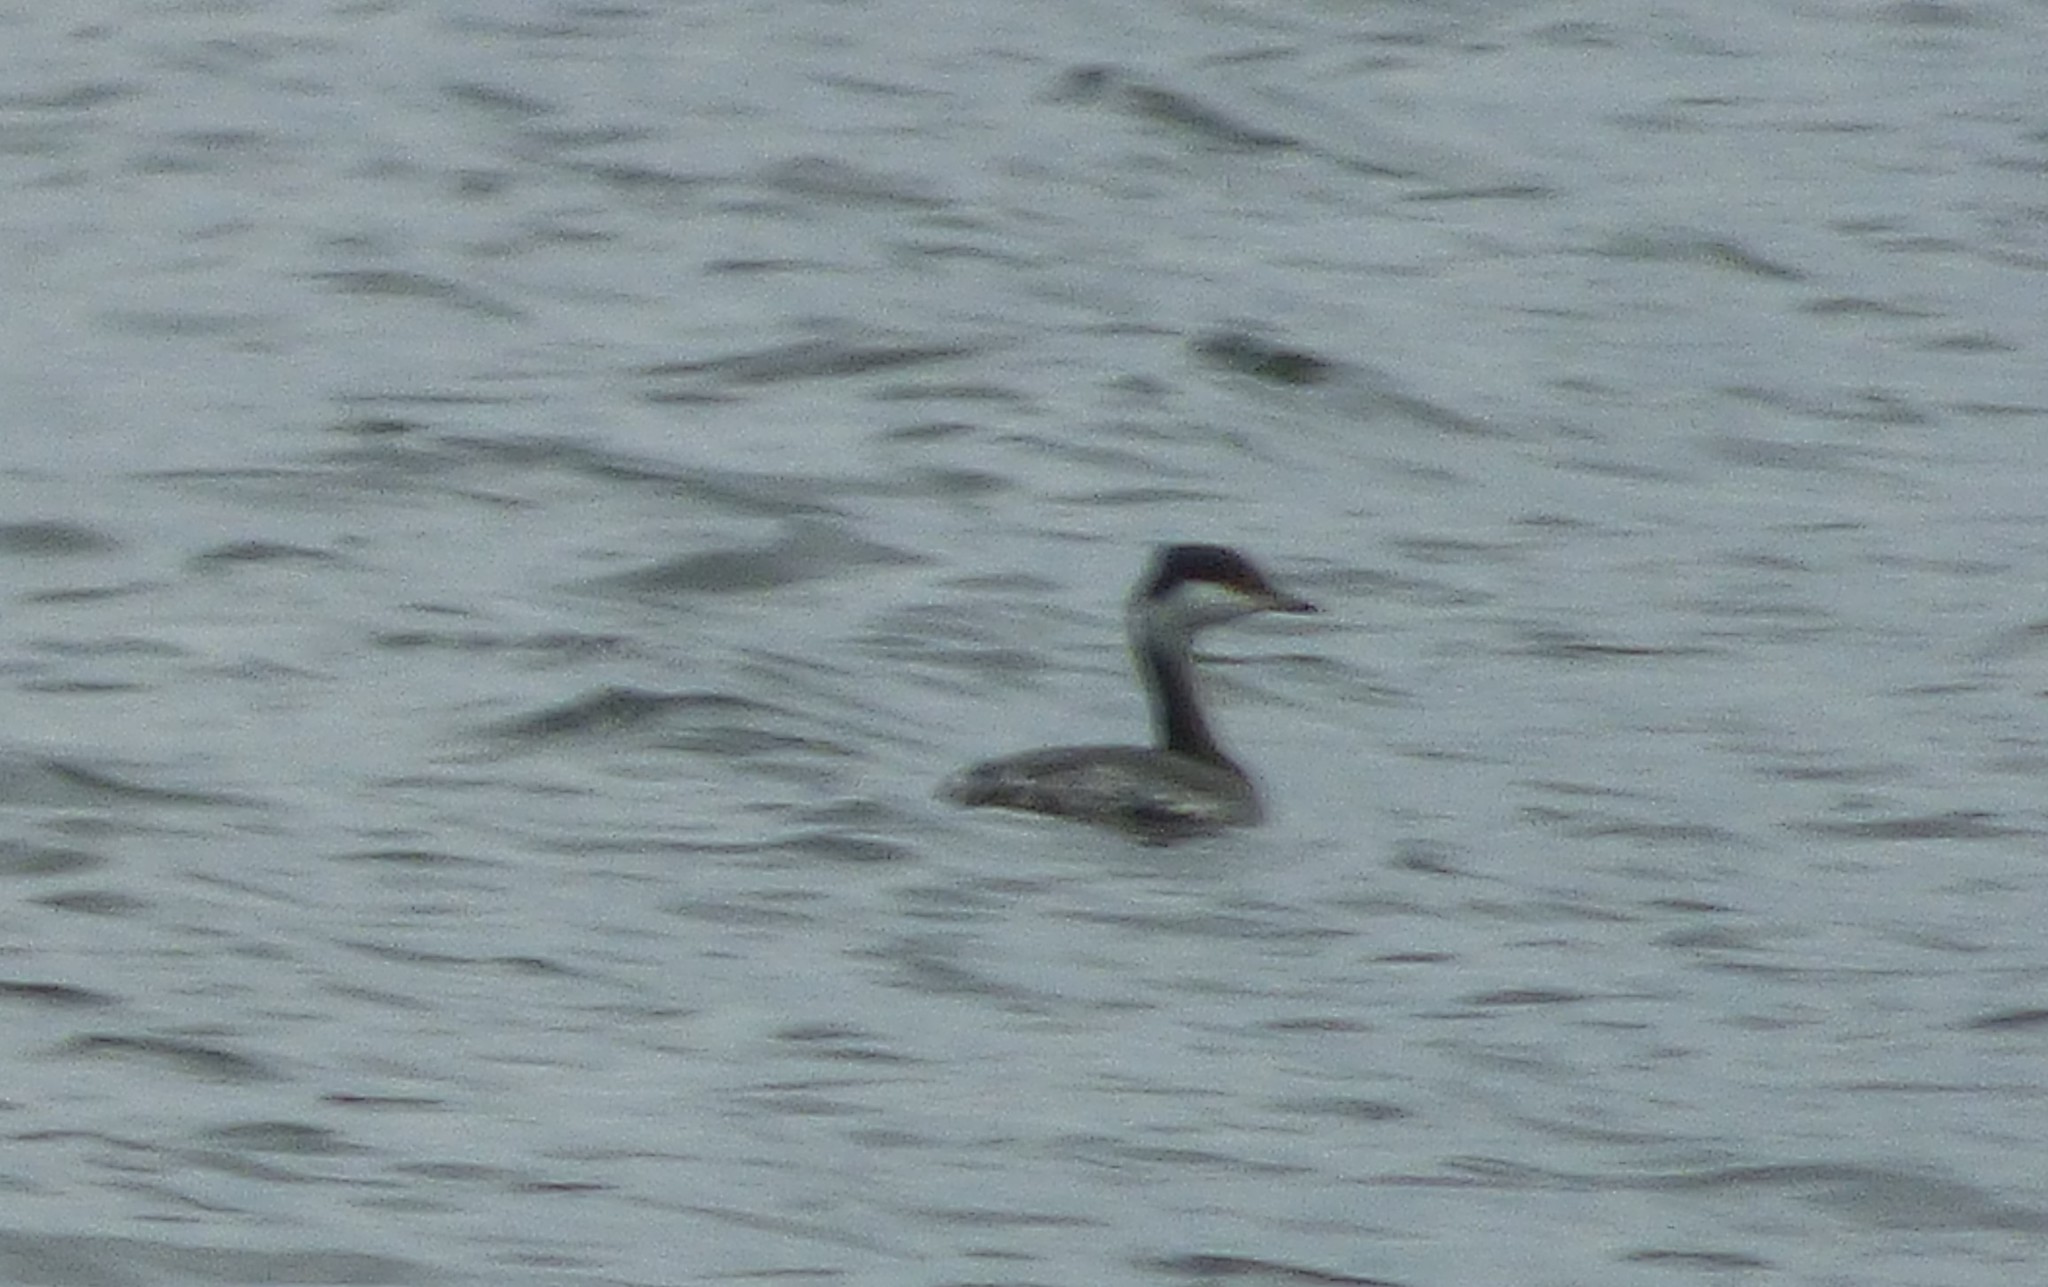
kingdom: Animalia
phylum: Chordata
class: Aves
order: Podicipediformes
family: Podicipedidae
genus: Podiceps
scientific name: Podiceps auritus
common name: Horned grebe
